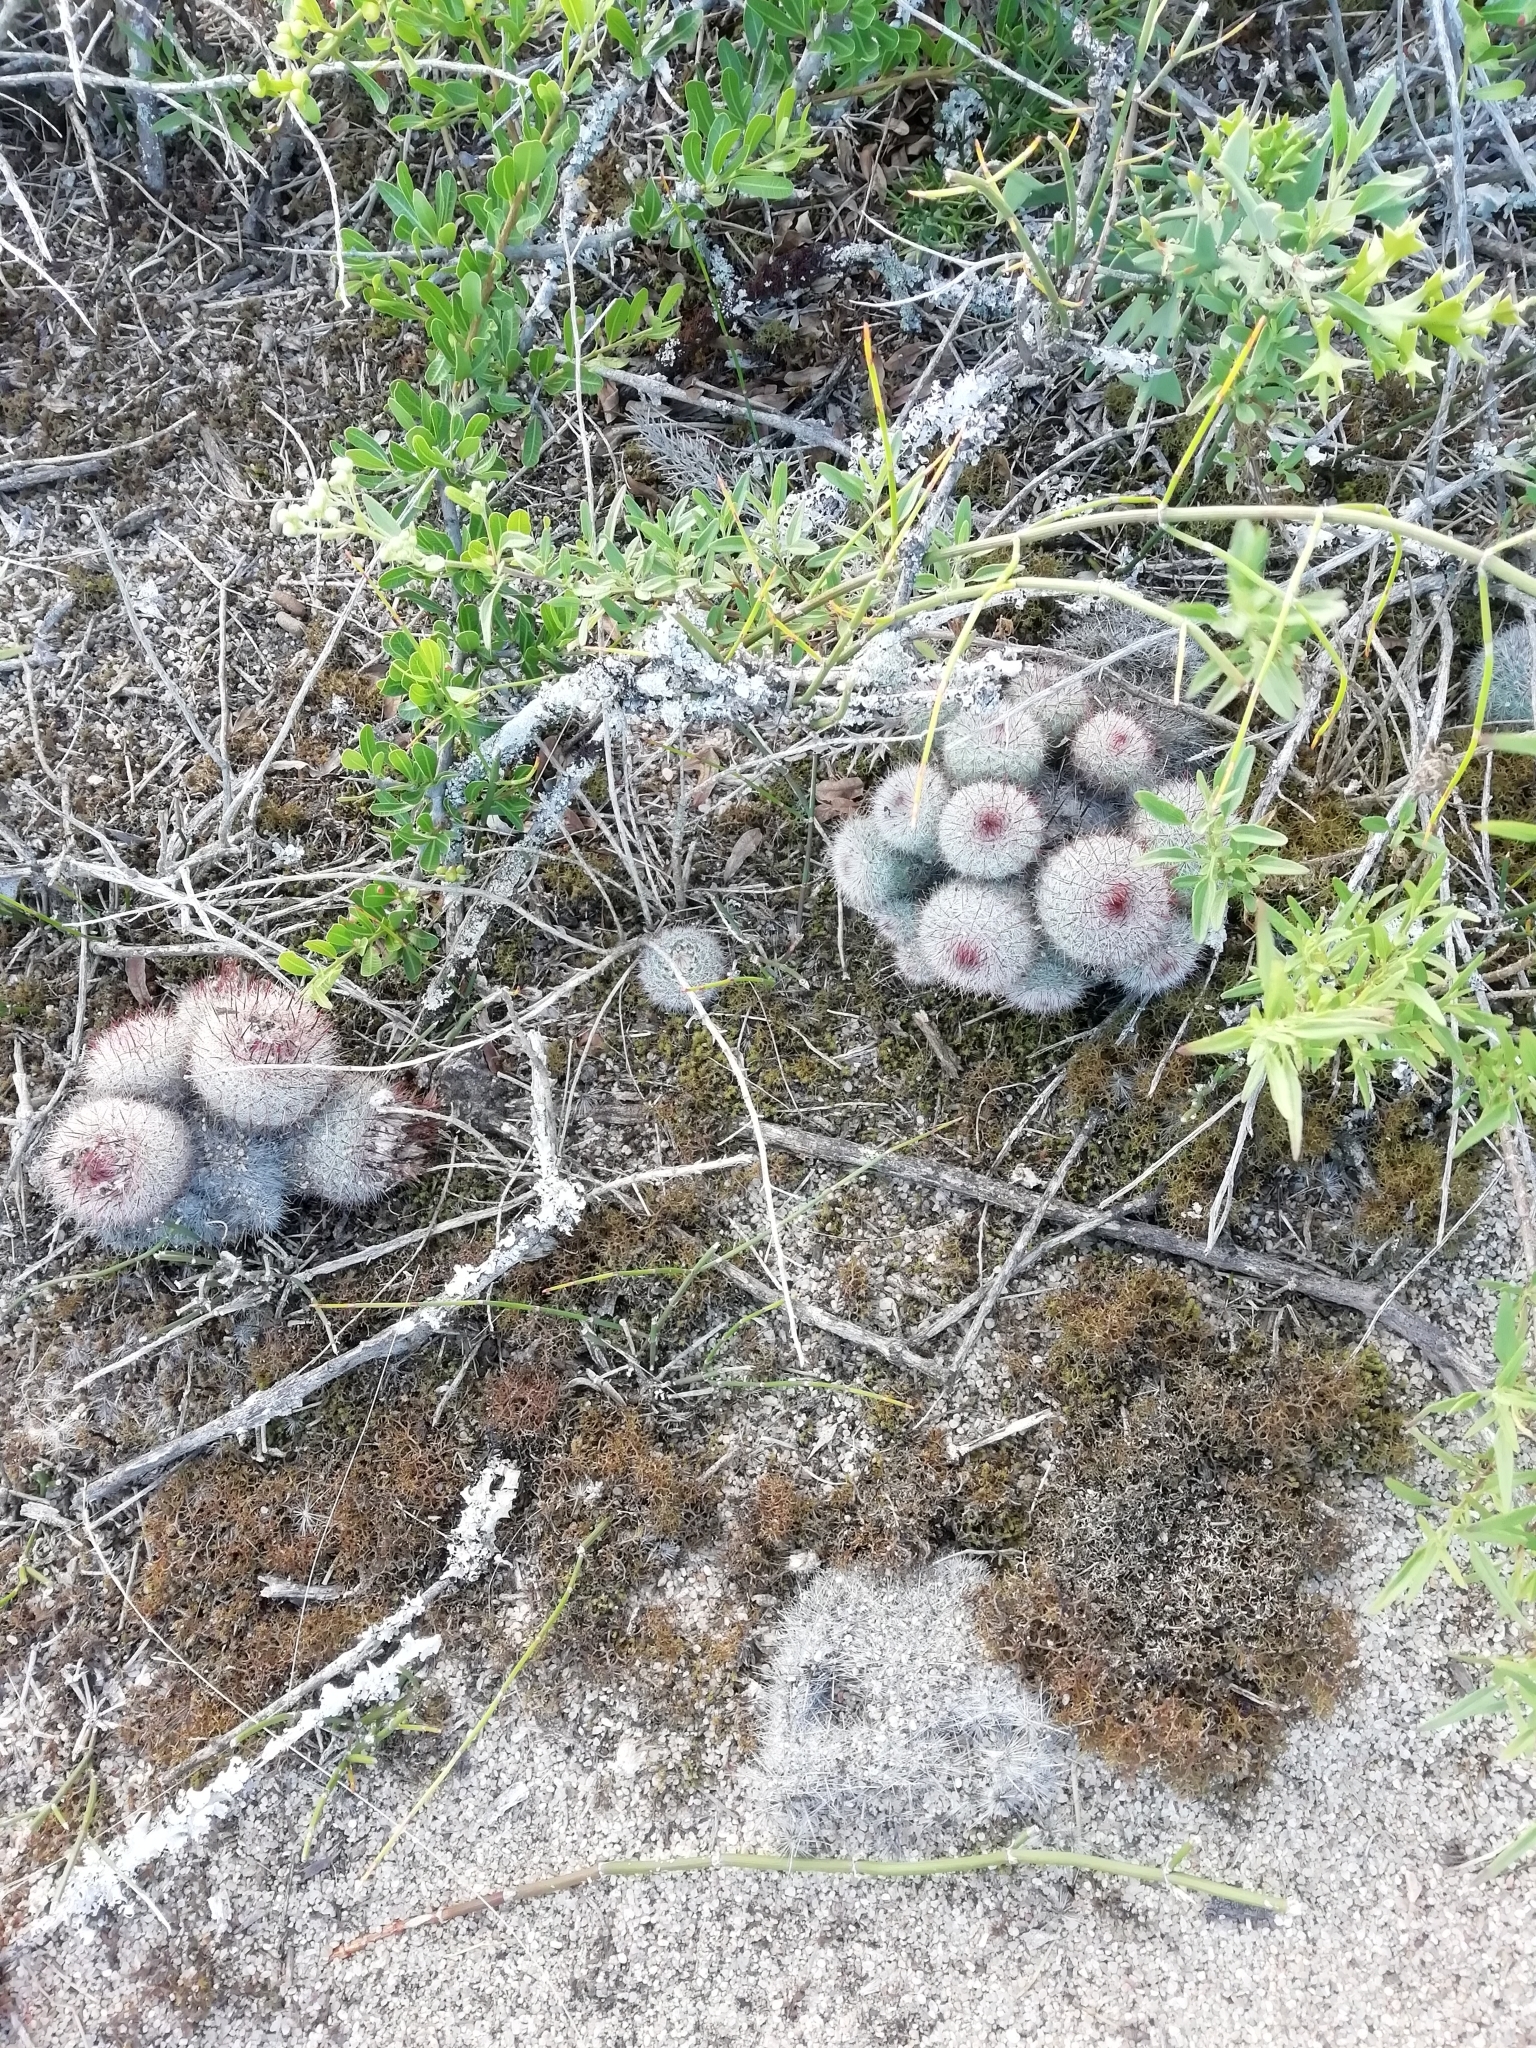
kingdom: Plantae
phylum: Tracheophyta
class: Magnoliopsida
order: Caryophyllales
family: Cactaceae
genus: Parodia
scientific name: Parodia scopa
